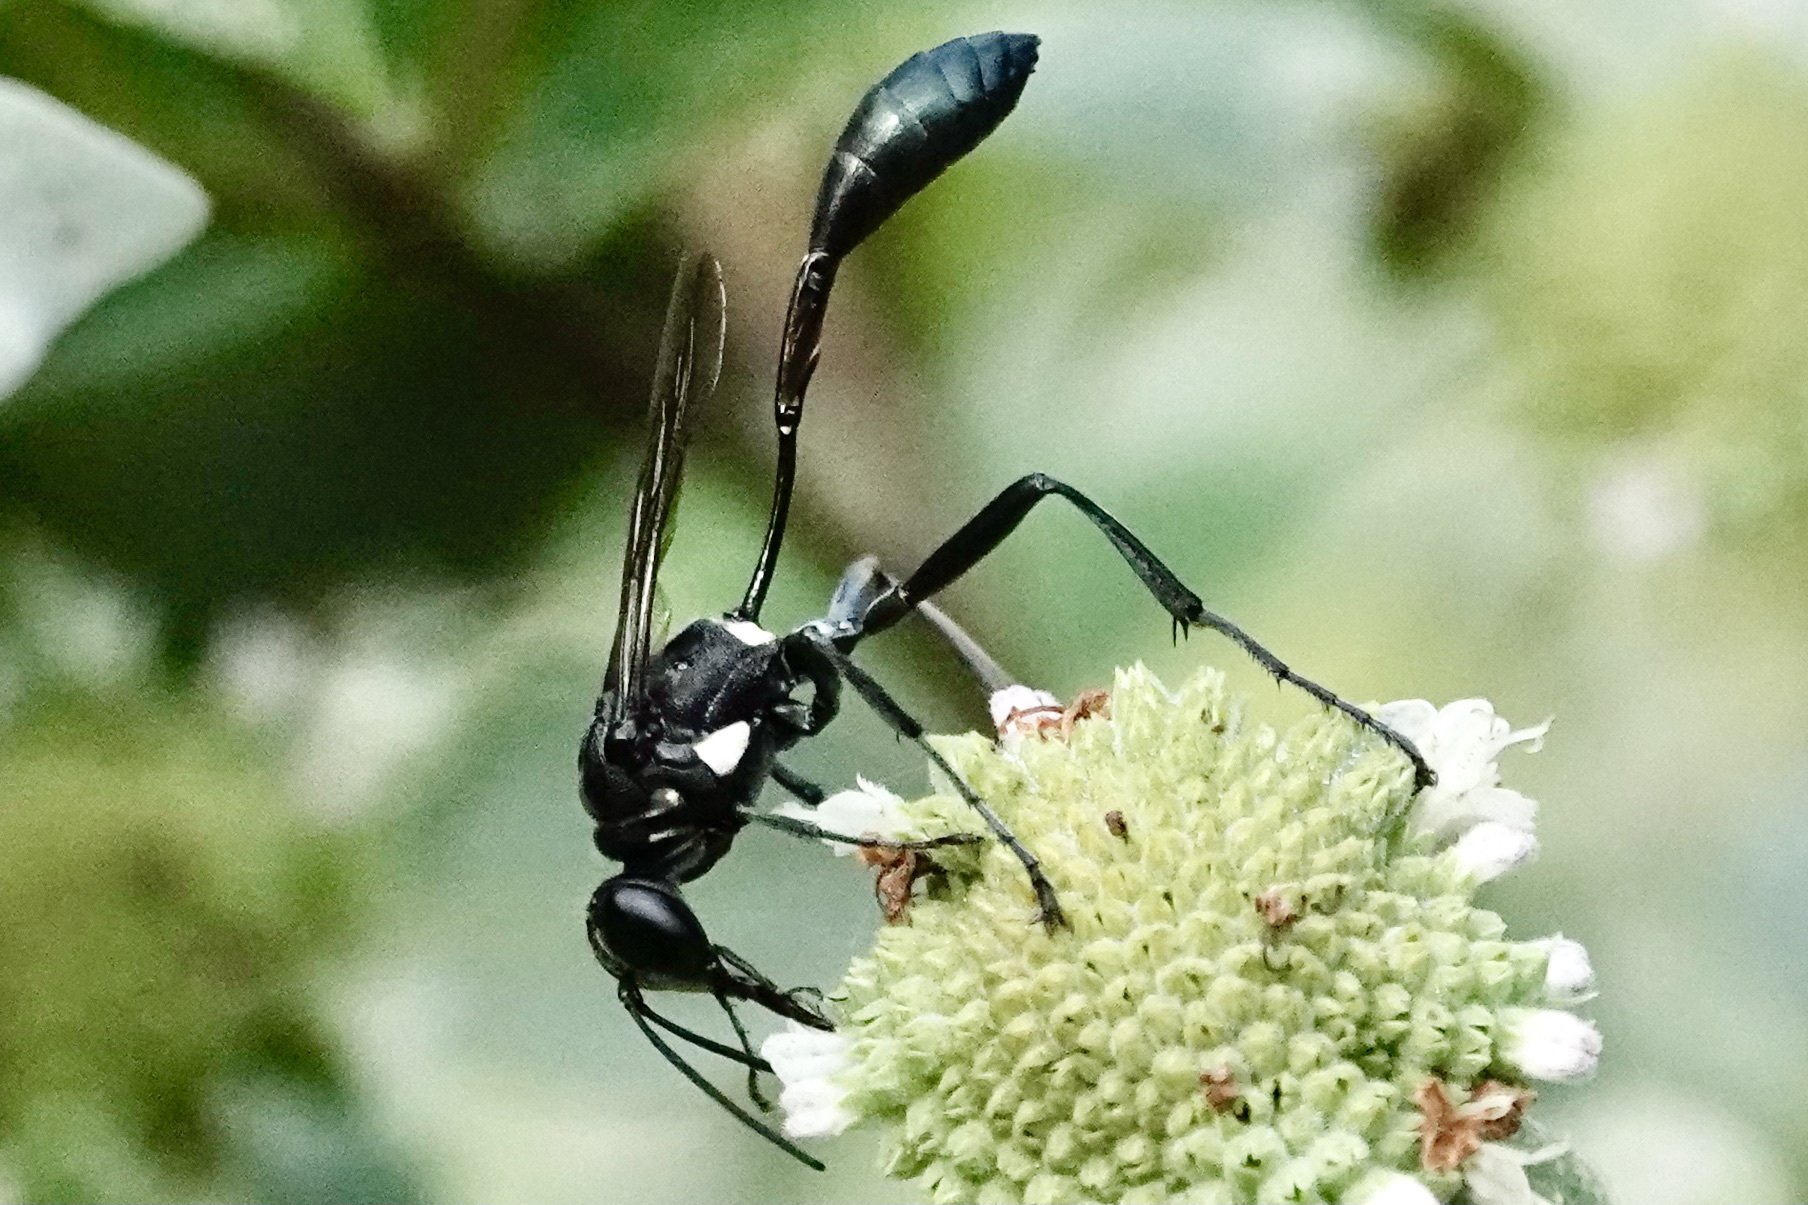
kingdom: Animalia
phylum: Arthropoda
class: Insecta
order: Hymenoptera
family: Sphecidae
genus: Eremnophila
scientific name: Eremnophila aureonotata
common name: Gold-marked thread-waisted wasp
